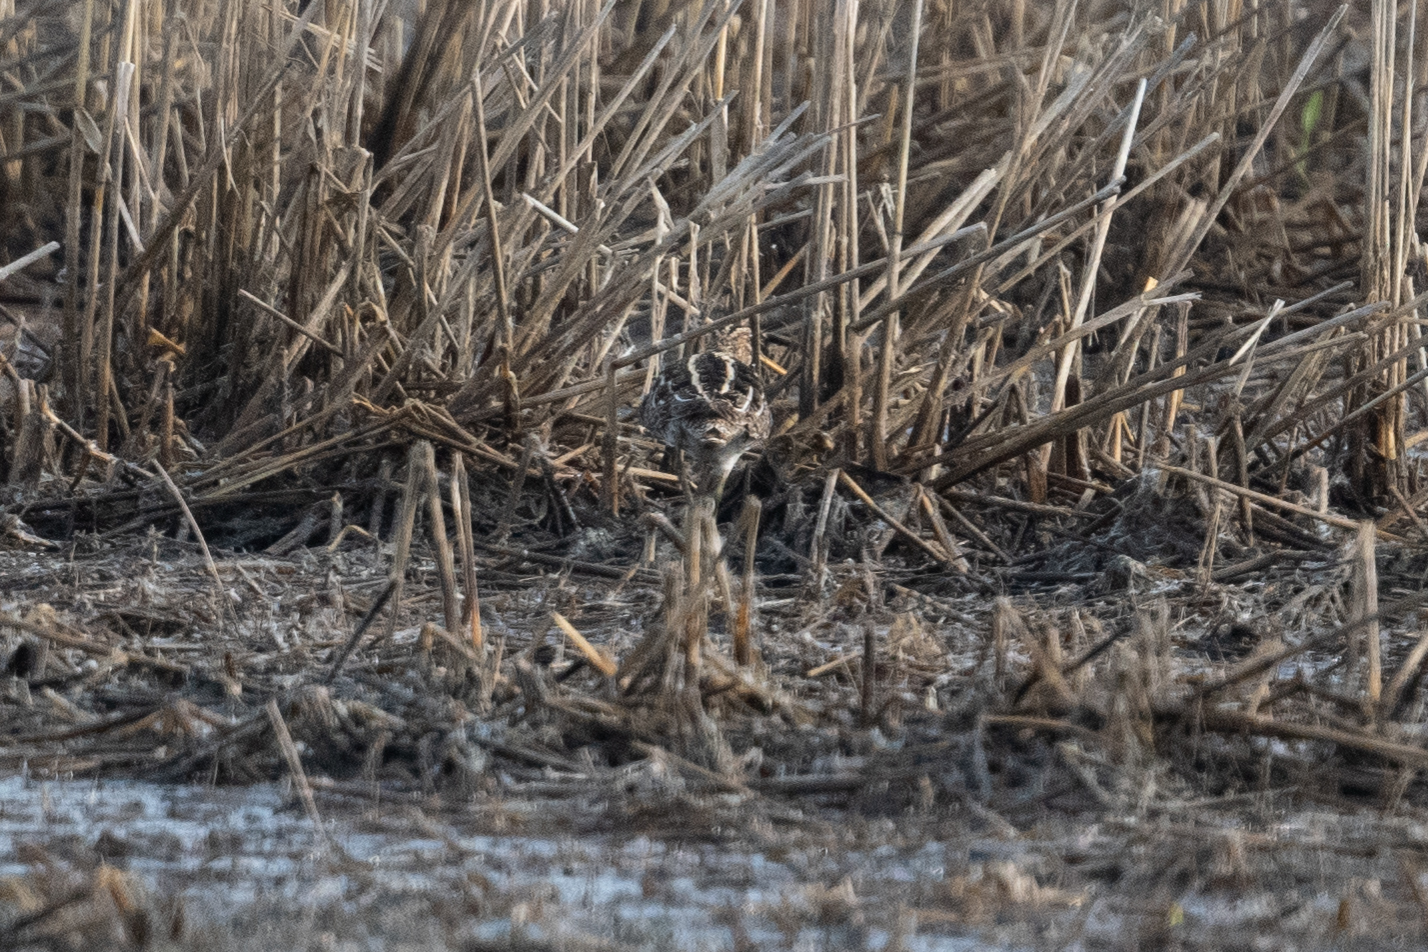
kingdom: Animalia
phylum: Chordata
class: Aves
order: Charadriiformes
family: Scolopacidae
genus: Gallinago
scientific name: Gallinago delicata
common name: Wilson's snipe
